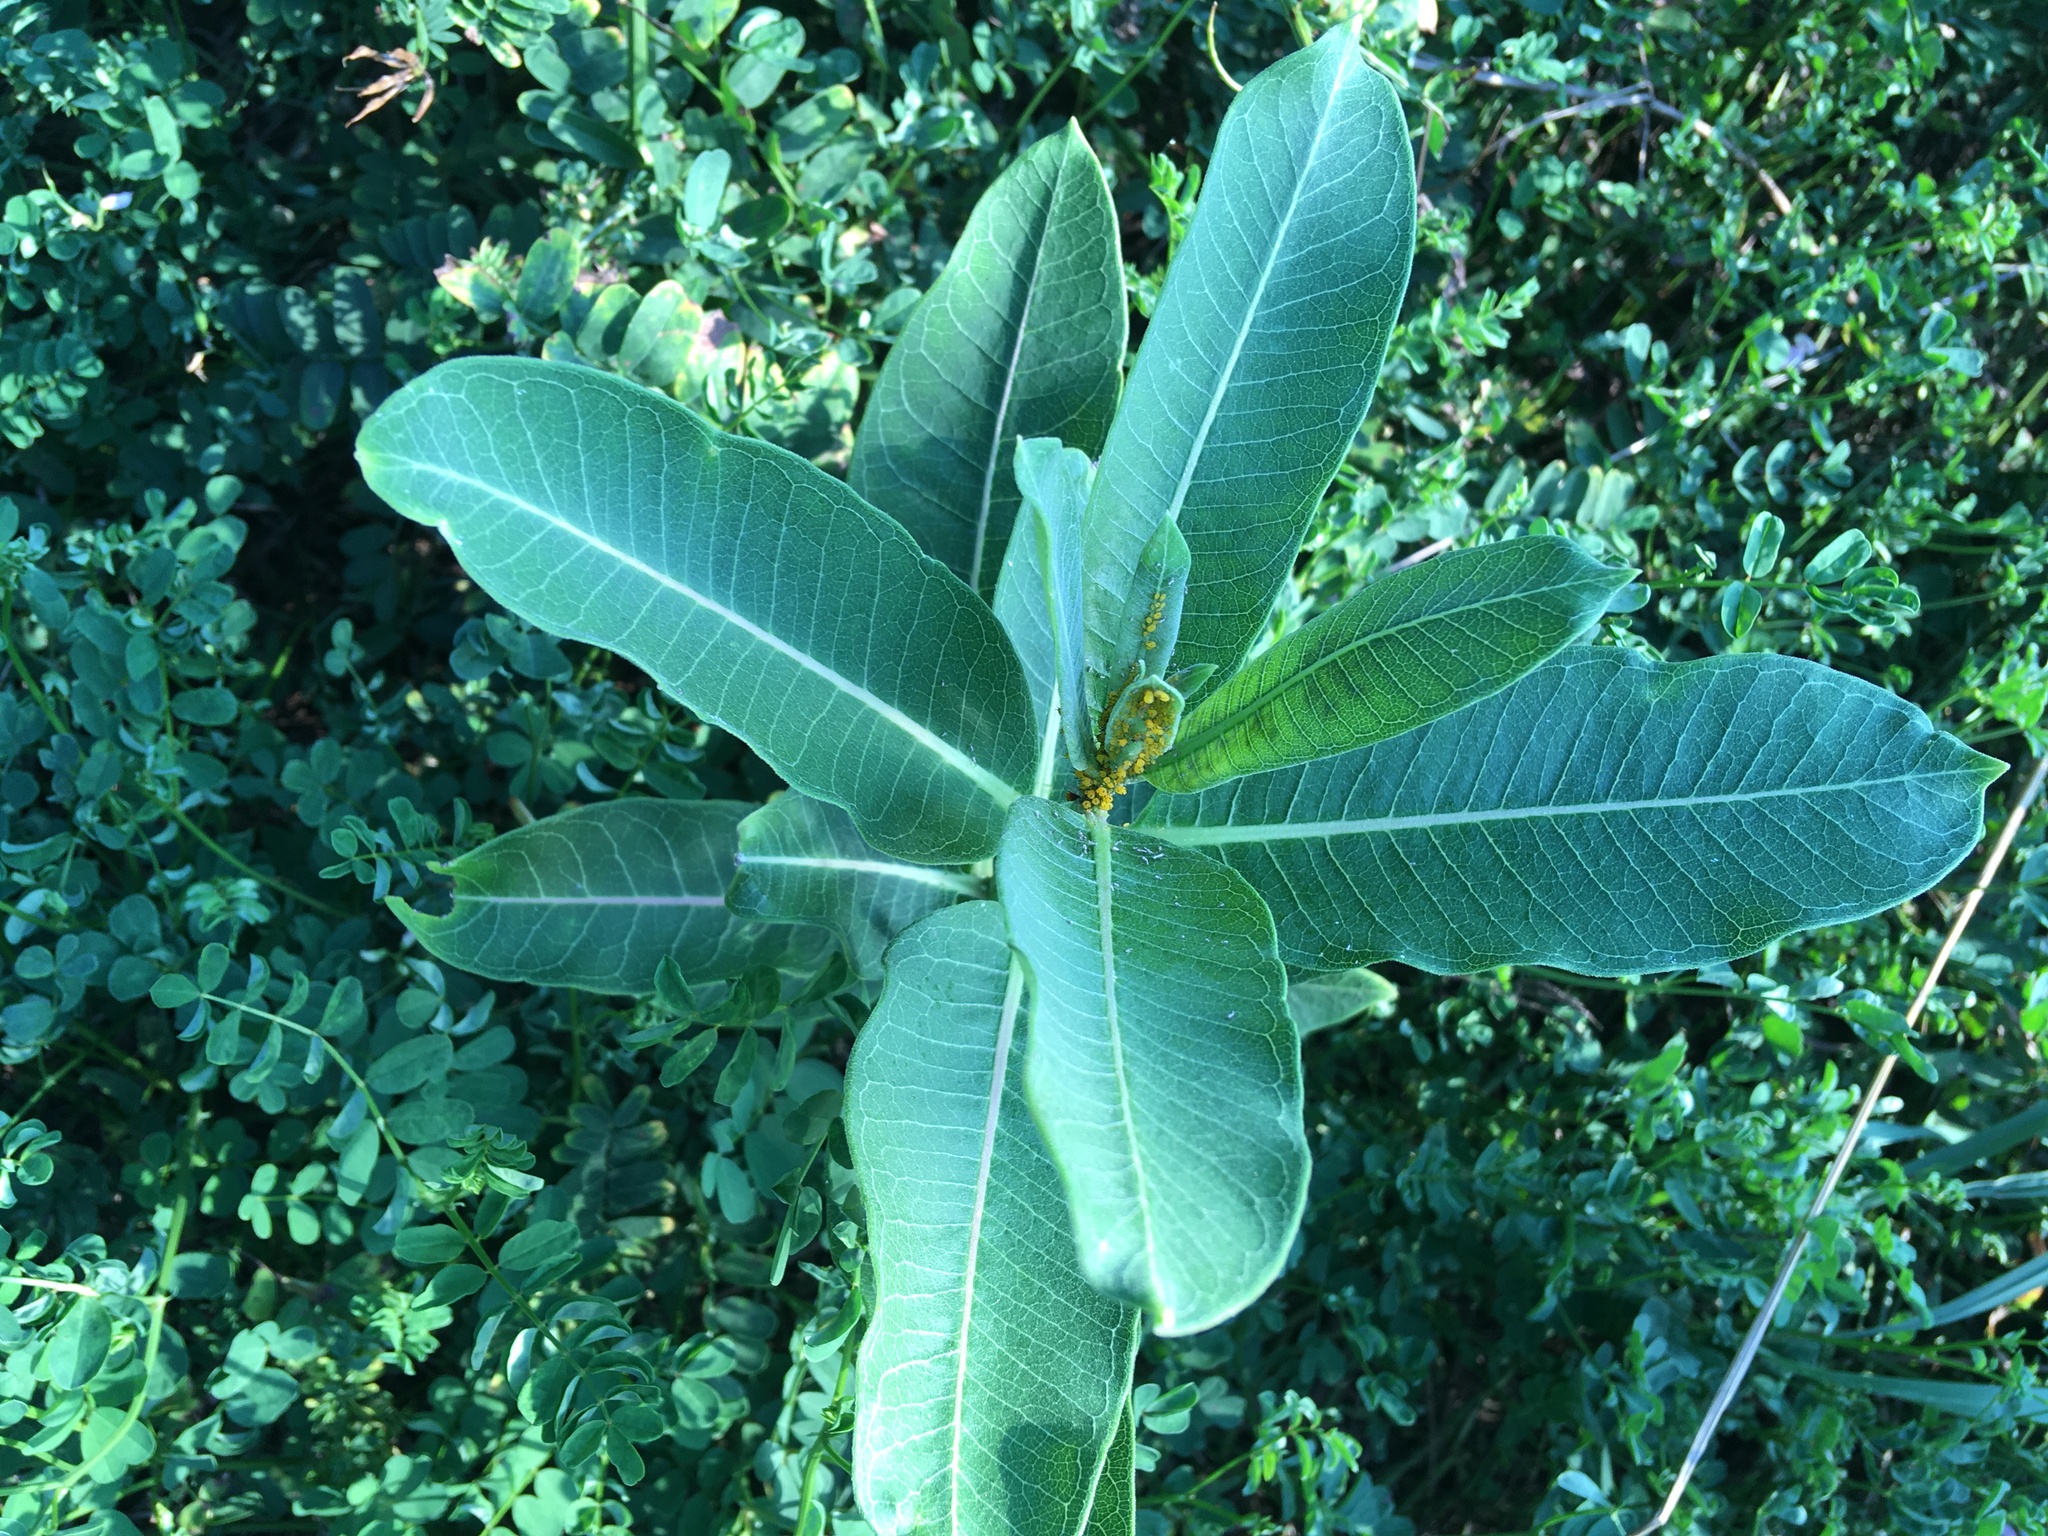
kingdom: Plantae
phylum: Tracheophyta
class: Magnoliopsida
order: Gentianales
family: Apocynaceae
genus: Asclepias
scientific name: Asclepias syriaca
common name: Common milkweed
